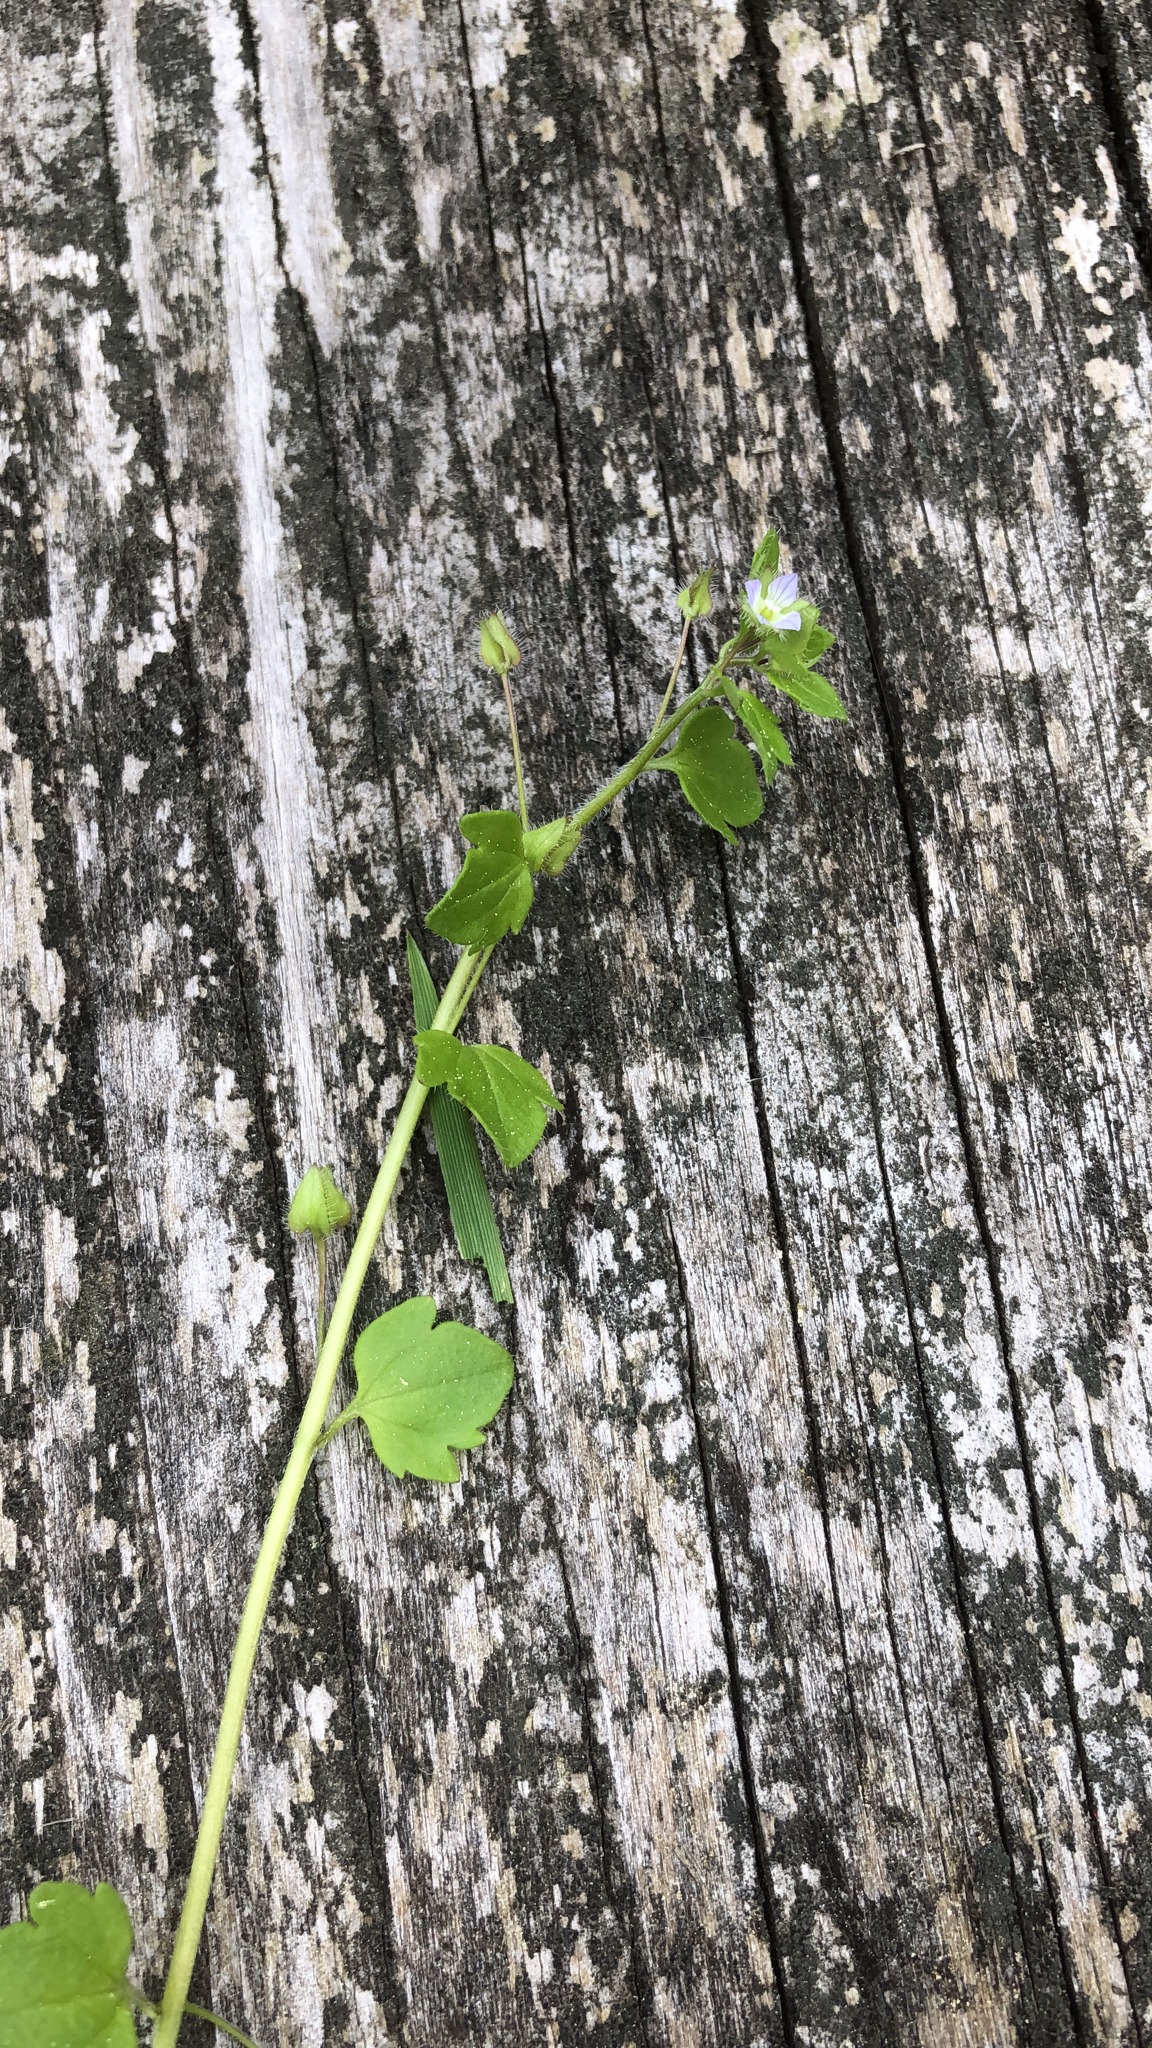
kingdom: Plantae
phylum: Tracheophyta
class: Magnoliopsida
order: Lamiales
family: Plantaginaceae
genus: Veronica
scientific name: Veronica hederifolia
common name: Ivy-leaved speedwell
